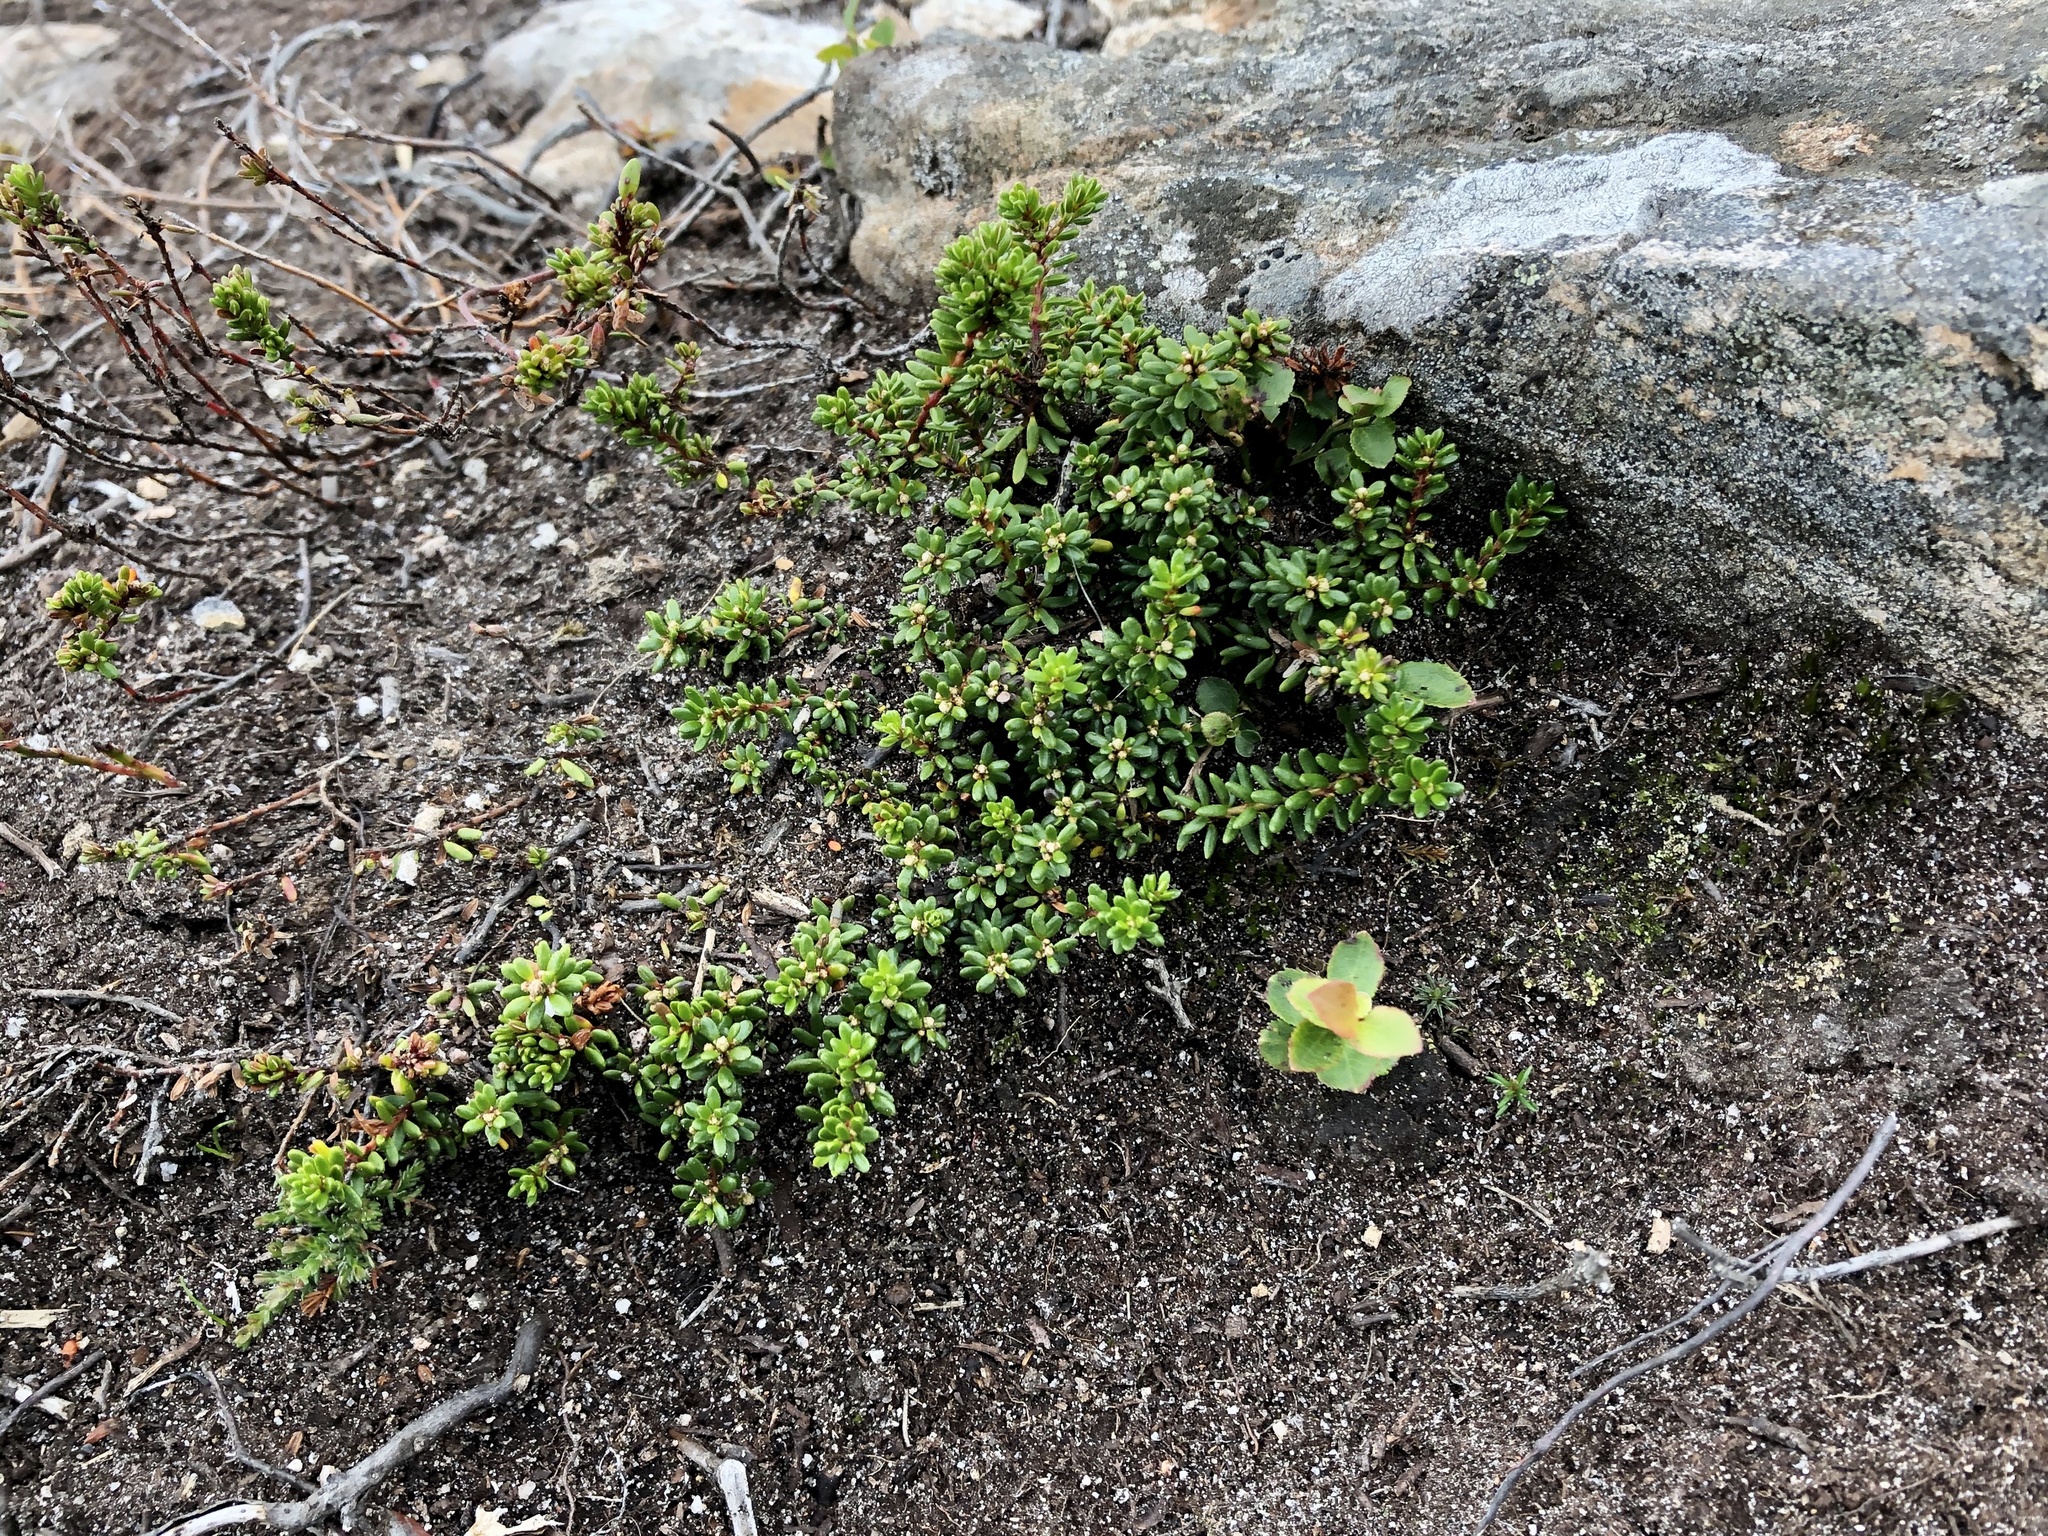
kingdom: Plantae
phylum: Tracheophyta
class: Magnoliopsida
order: Ericales
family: Ericaceae
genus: Empetrum
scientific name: Empetrum nigrum
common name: Black crowberry
